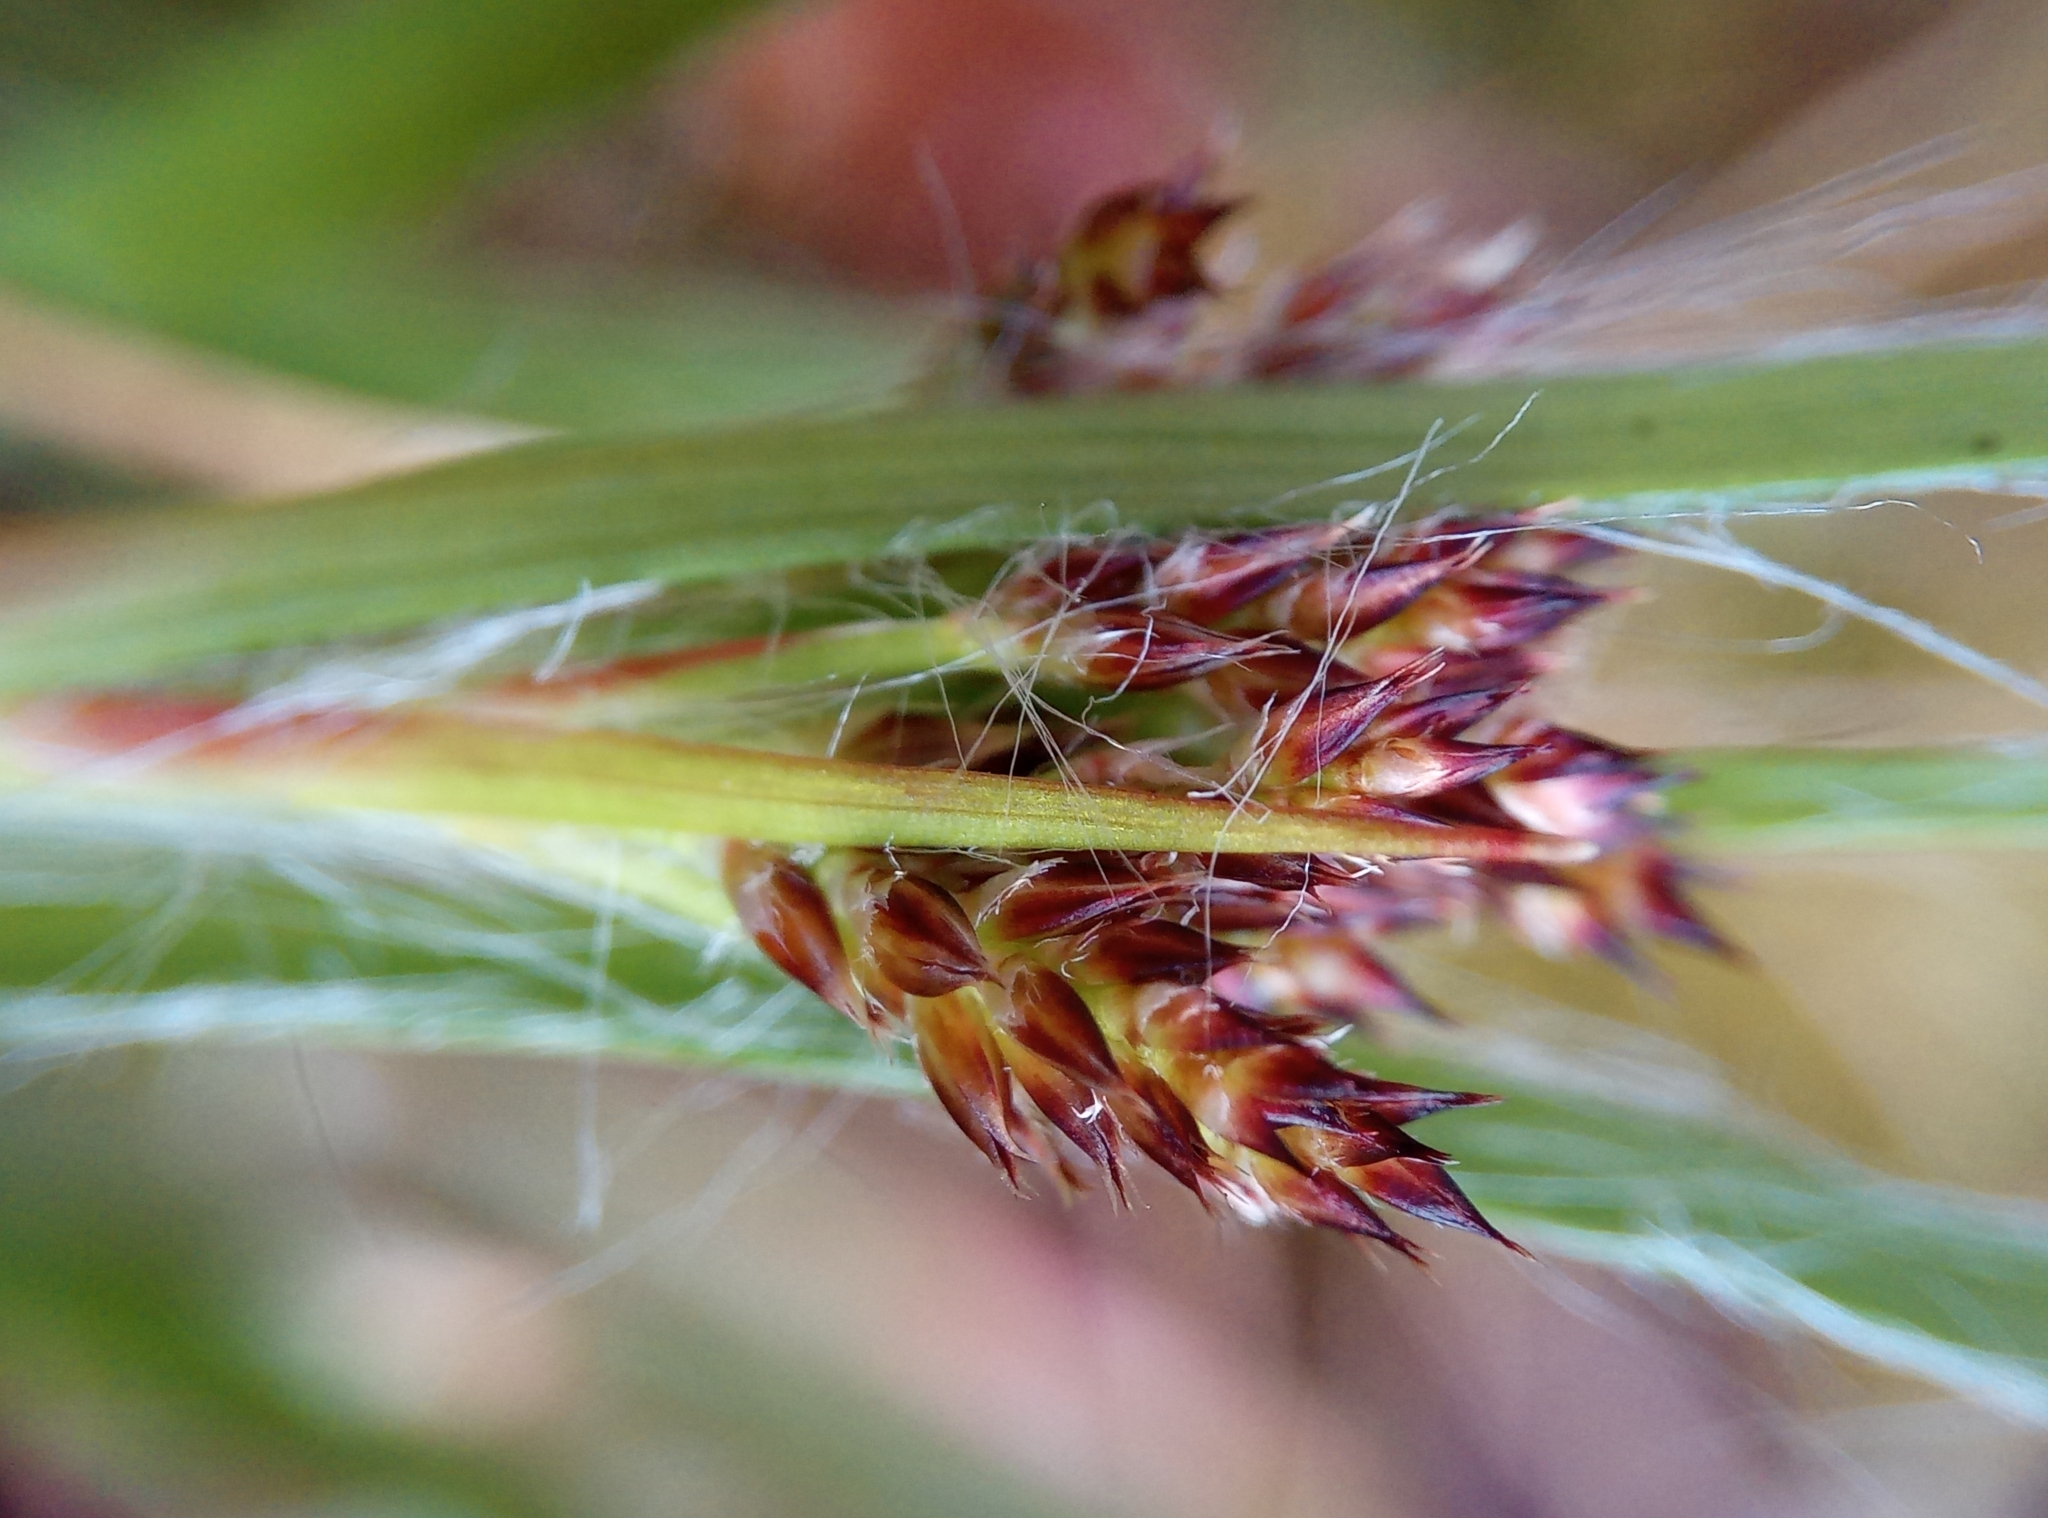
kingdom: Plantae
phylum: Tracheophyta
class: Liliopsida
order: Poales
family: Juncaceae
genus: Luzula
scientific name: Luzula multiflora
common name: Heath wood-rush
